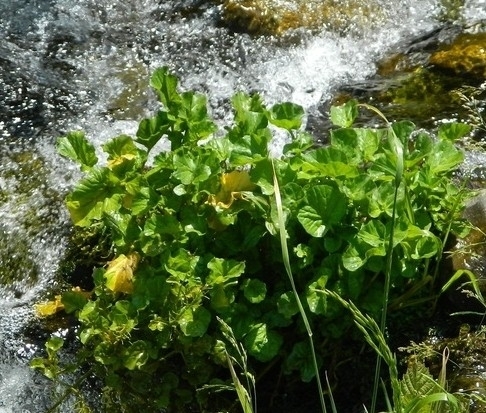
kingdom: Plantae
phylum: Tracheophyta
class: Magnoliopsida
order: Brassicales
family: Brassicaceae
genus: Cardamine
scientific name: Cardamine seidlitziana
